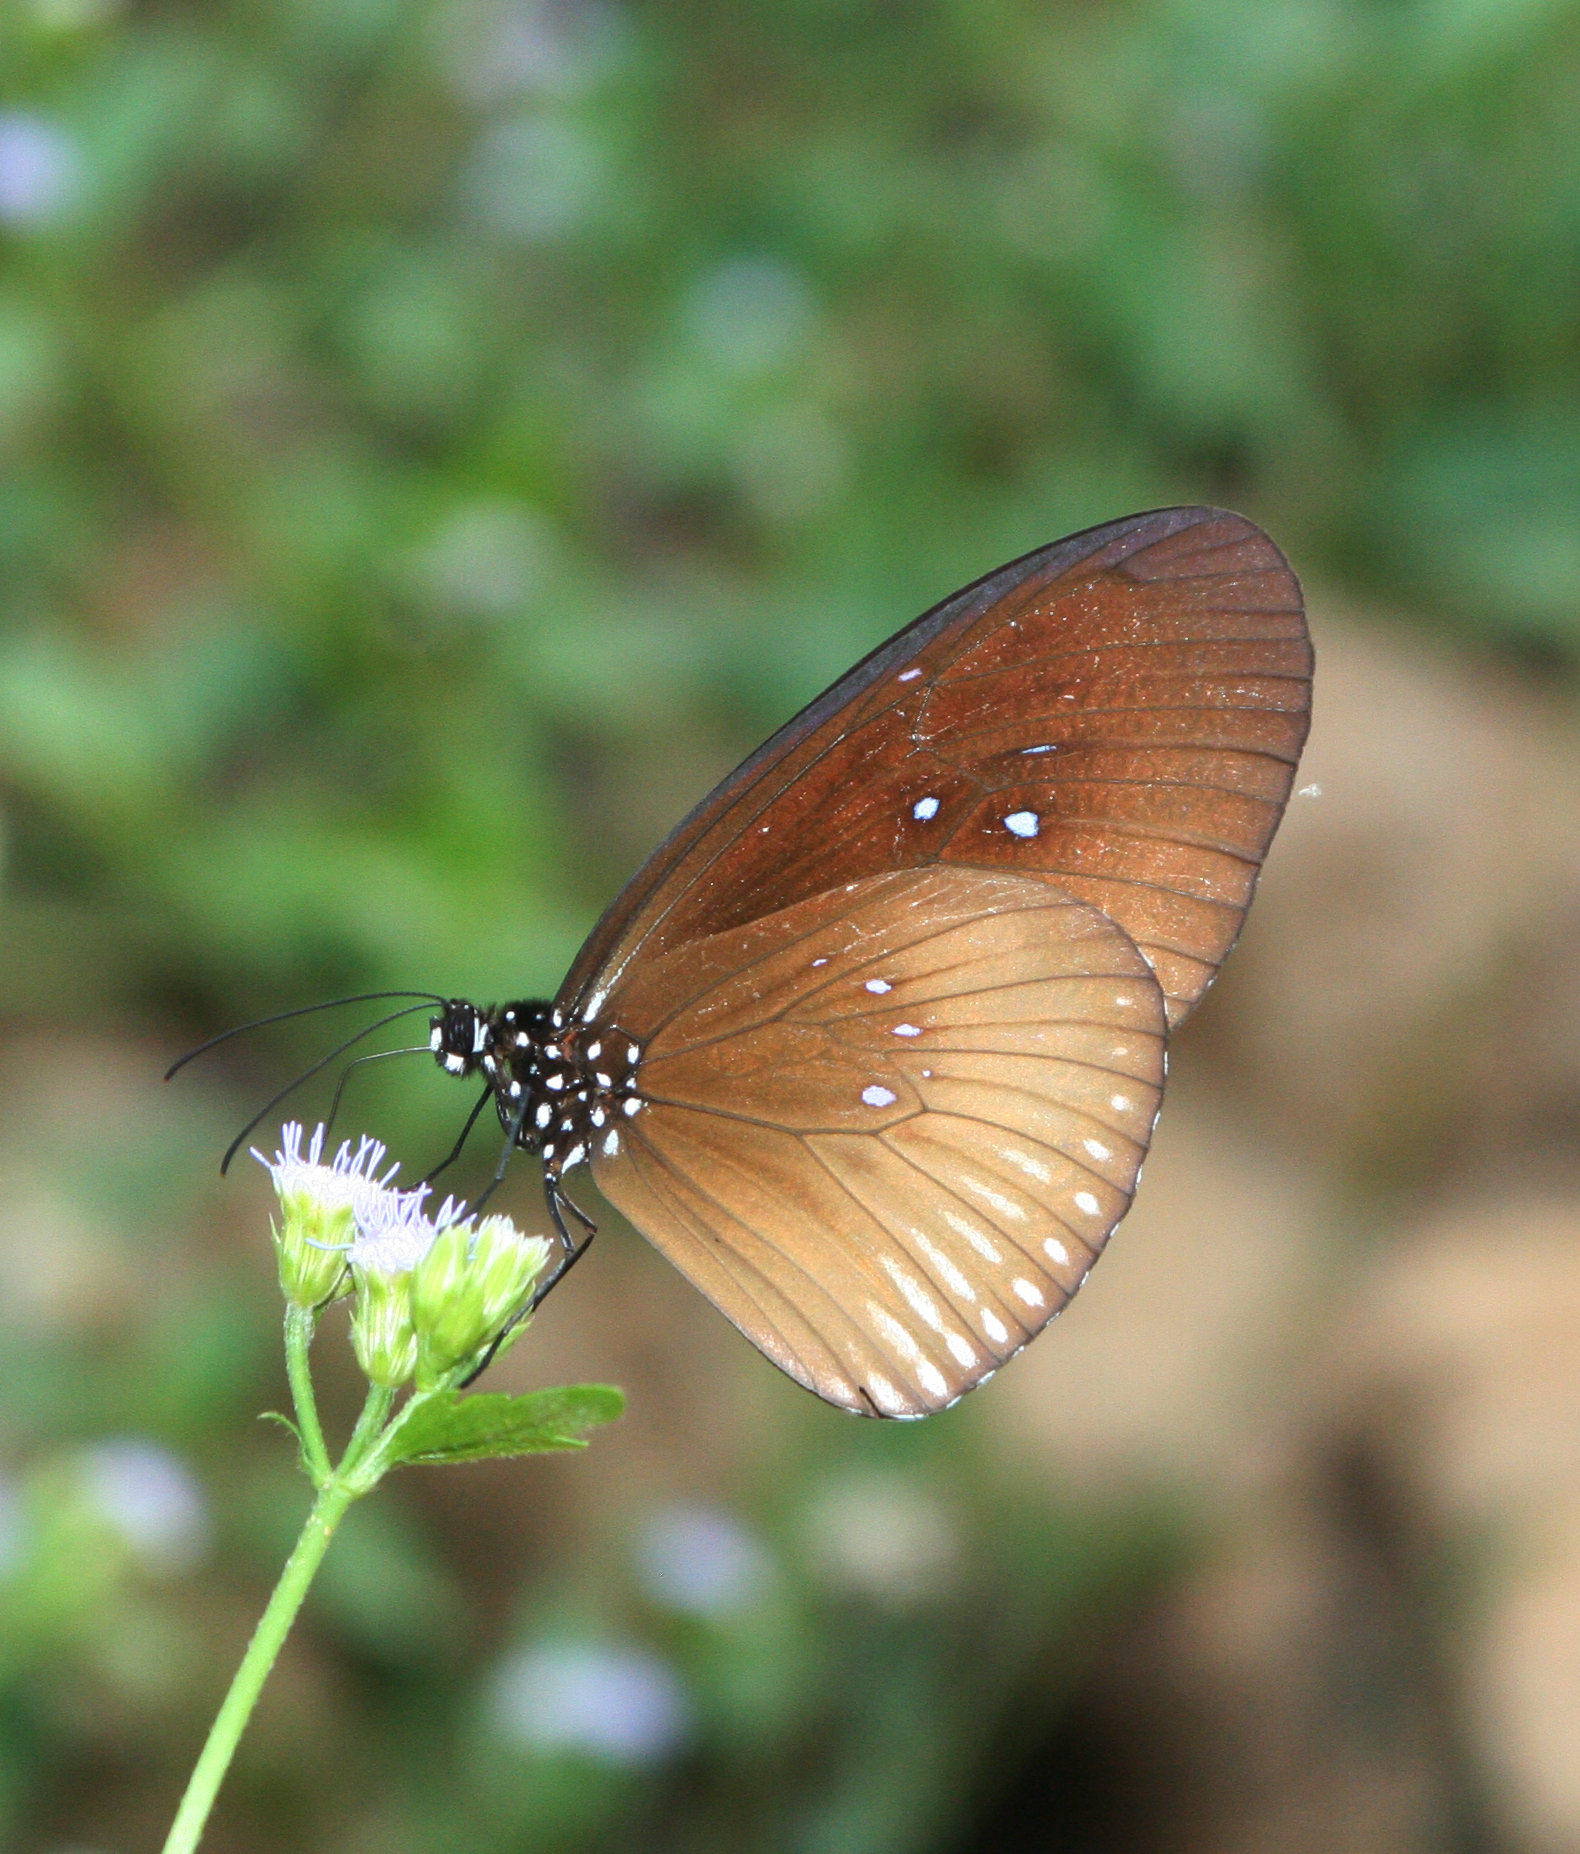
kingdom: Animalia
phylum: Arthropoda
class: Insecta
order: Lepidoptera
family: Nymphalidae
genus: Euploea
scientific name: Euploea eyndhovii
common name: Striped black crow butterfly
